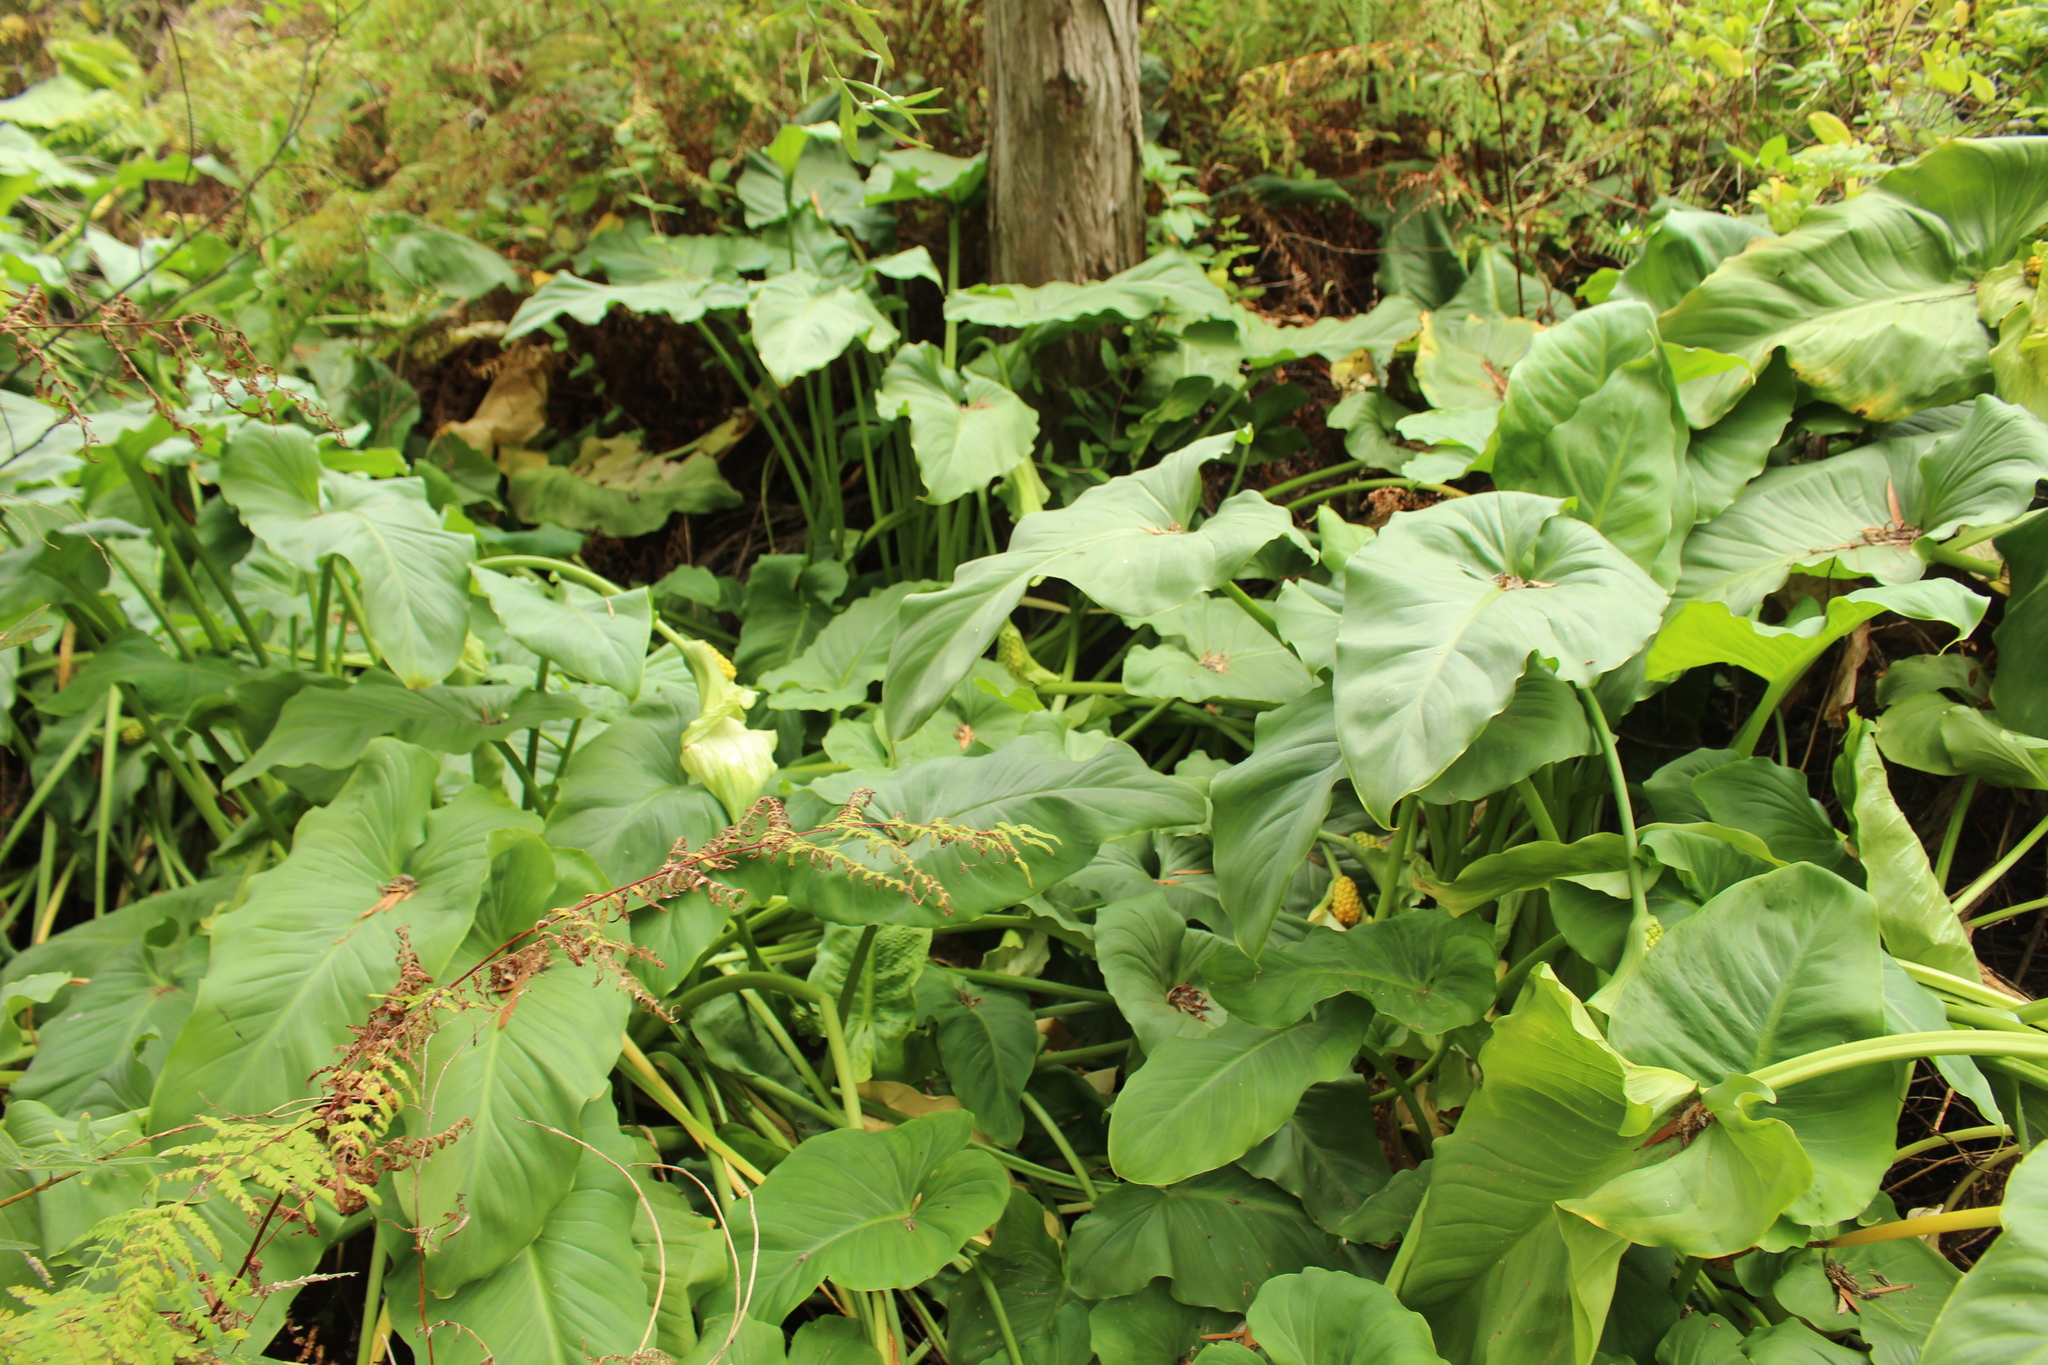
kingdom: Plantae
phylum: Tracheophyta
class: Liliopsida
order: Alismatales
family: Araceae
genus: Zantedeschia
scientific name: Zantedeschia aethiopica
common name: Altar-lily
